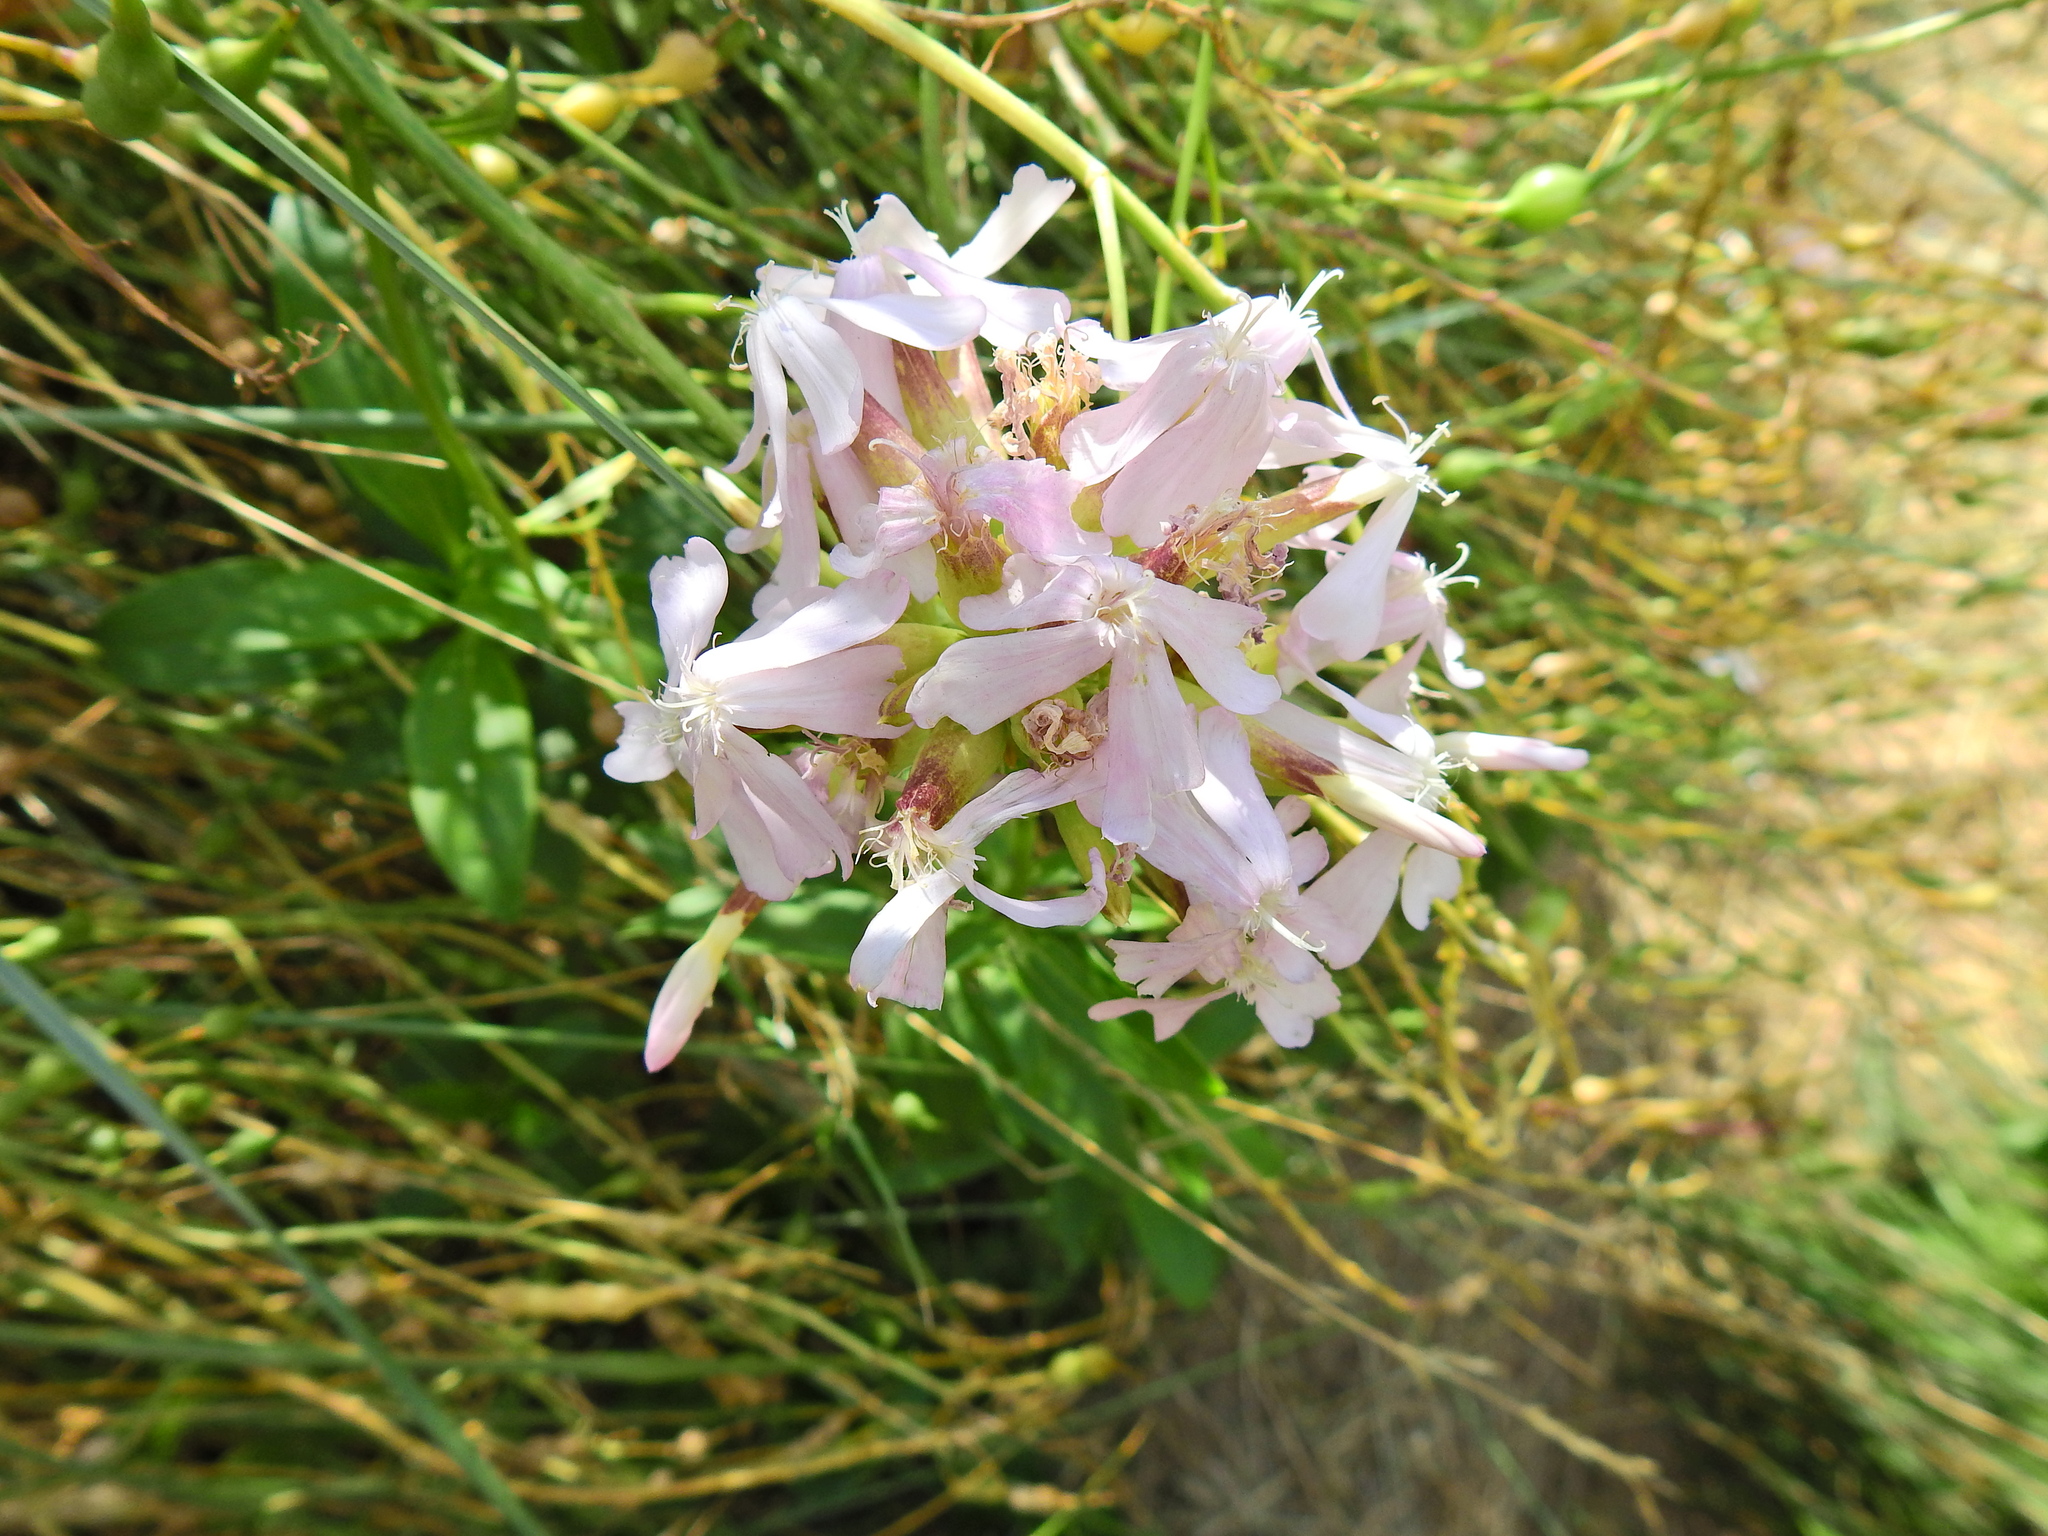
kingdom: Plantae
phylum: Tracheophyta
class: Magnoliopsida
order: Caryophyllales
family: Caryophyllaceae
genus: Saponaria
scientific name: Saponaria officinalis
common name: Soapwort
